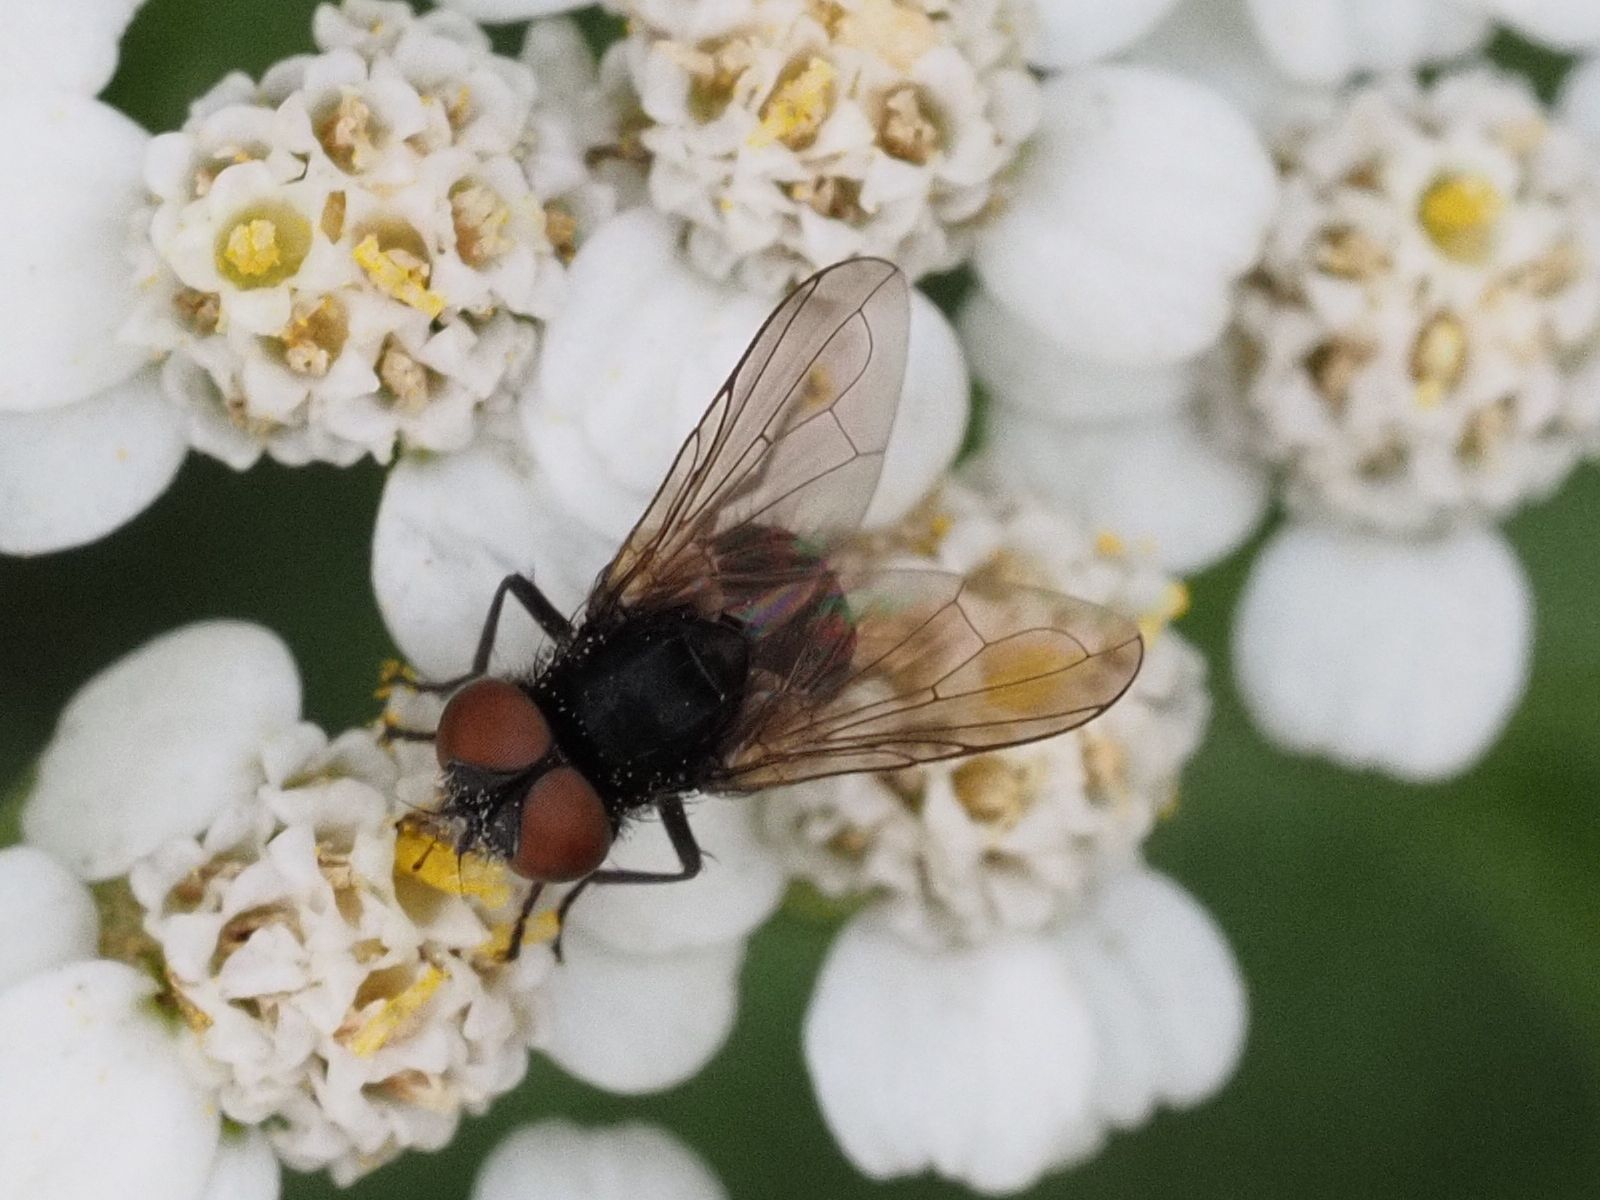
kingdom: Animalia
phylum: Arthropoda
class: Insecta
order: Diptera
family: Tachinidae
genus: Phasia
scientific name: Phasia barbifrons
